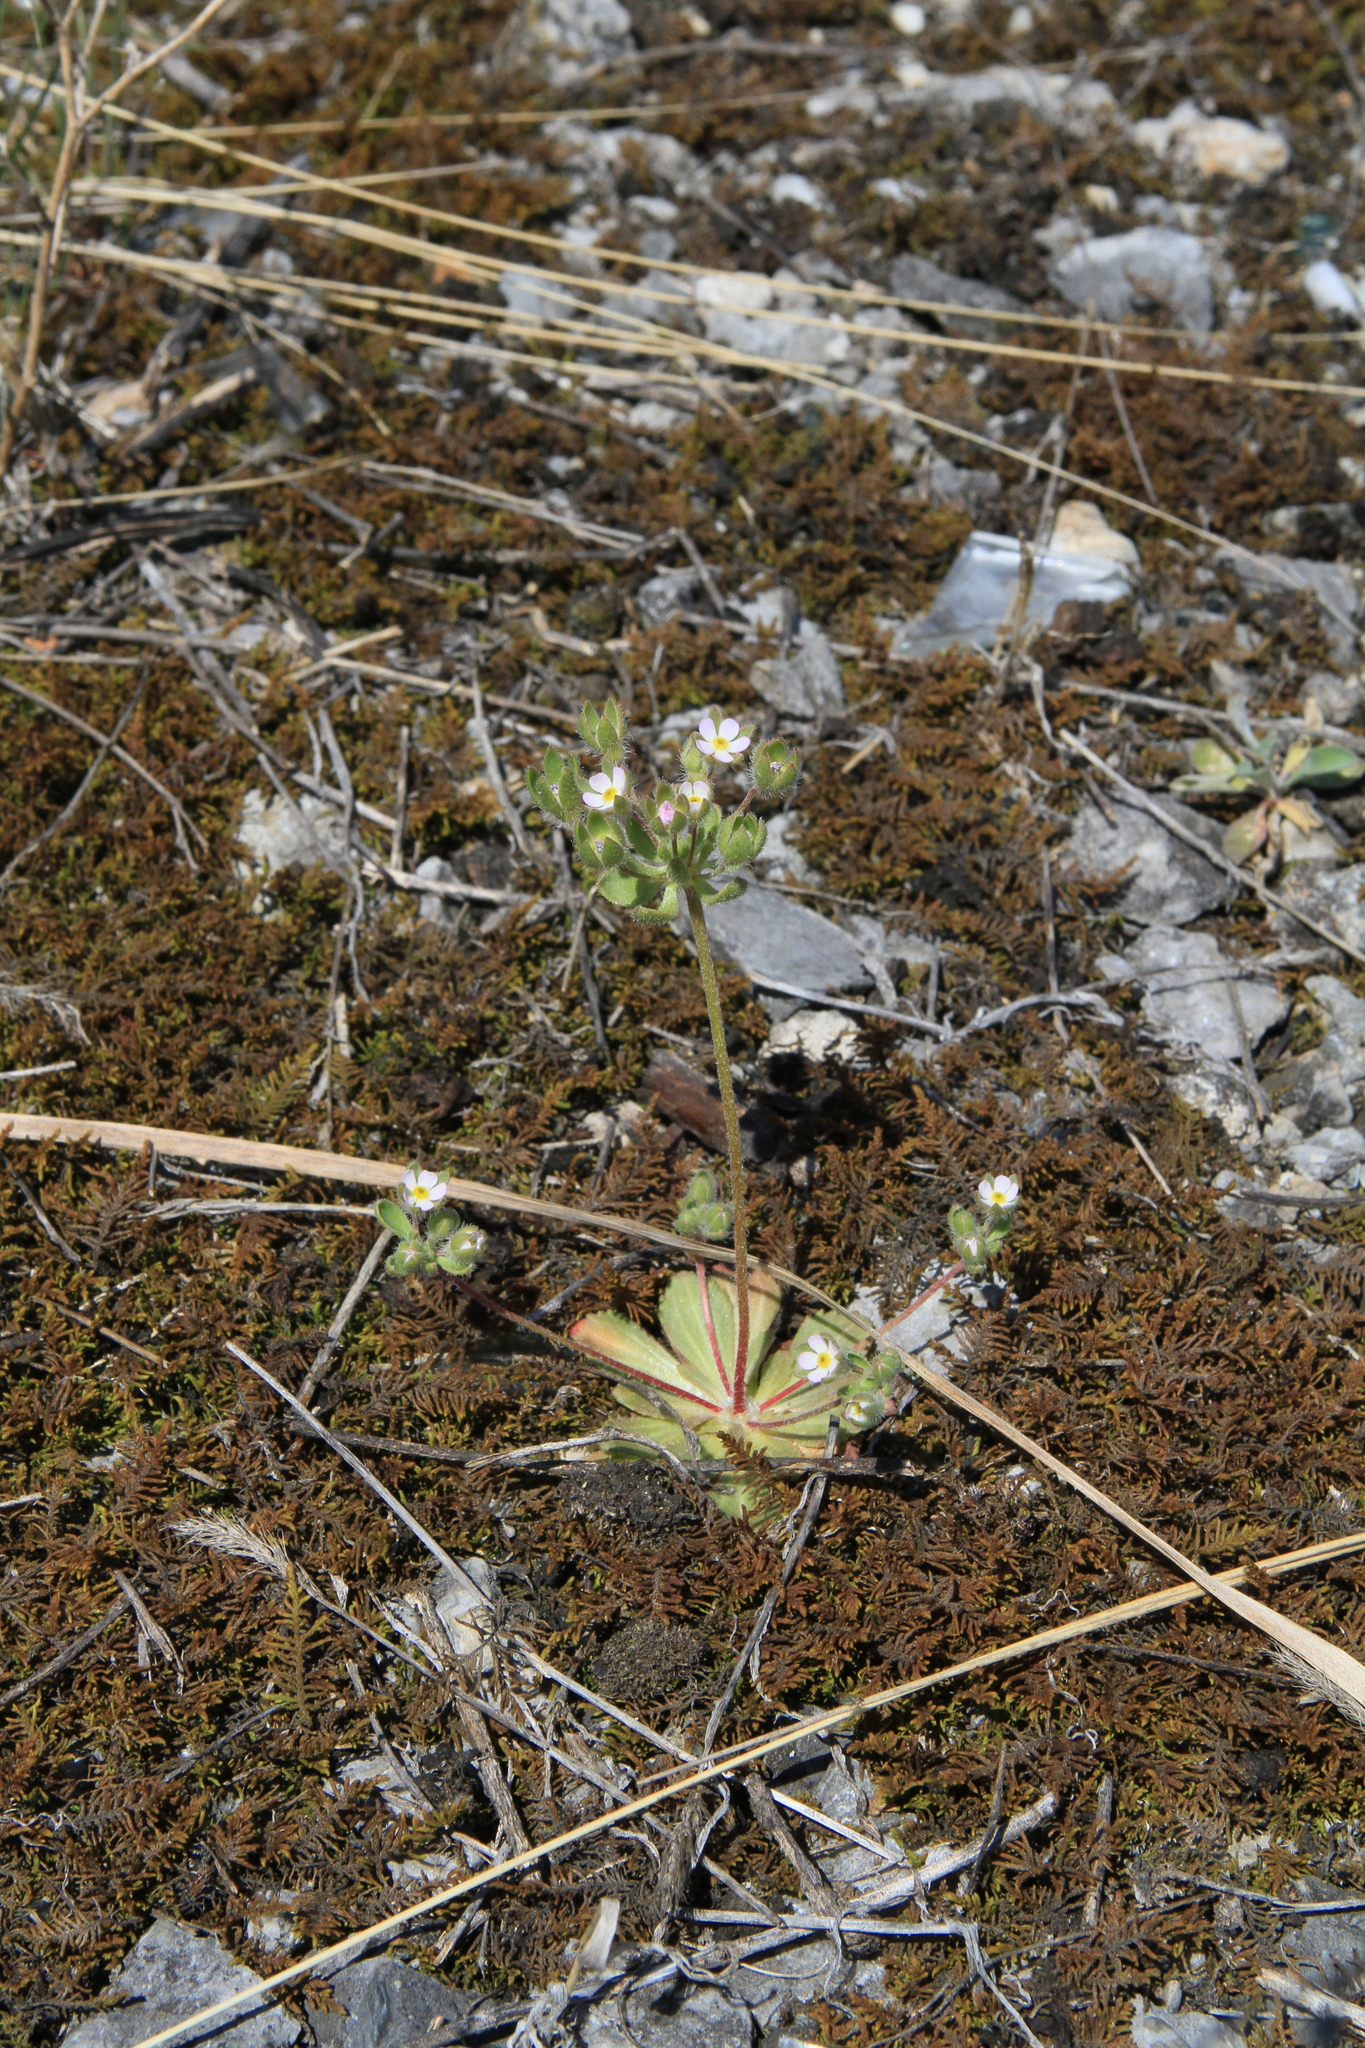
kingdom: Plantae
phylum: Tracheophyta
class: Magnoliopsida
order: Ericales
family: Primulaceae
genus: Androsace
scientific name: Androsace maxima
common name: Annual androsace
